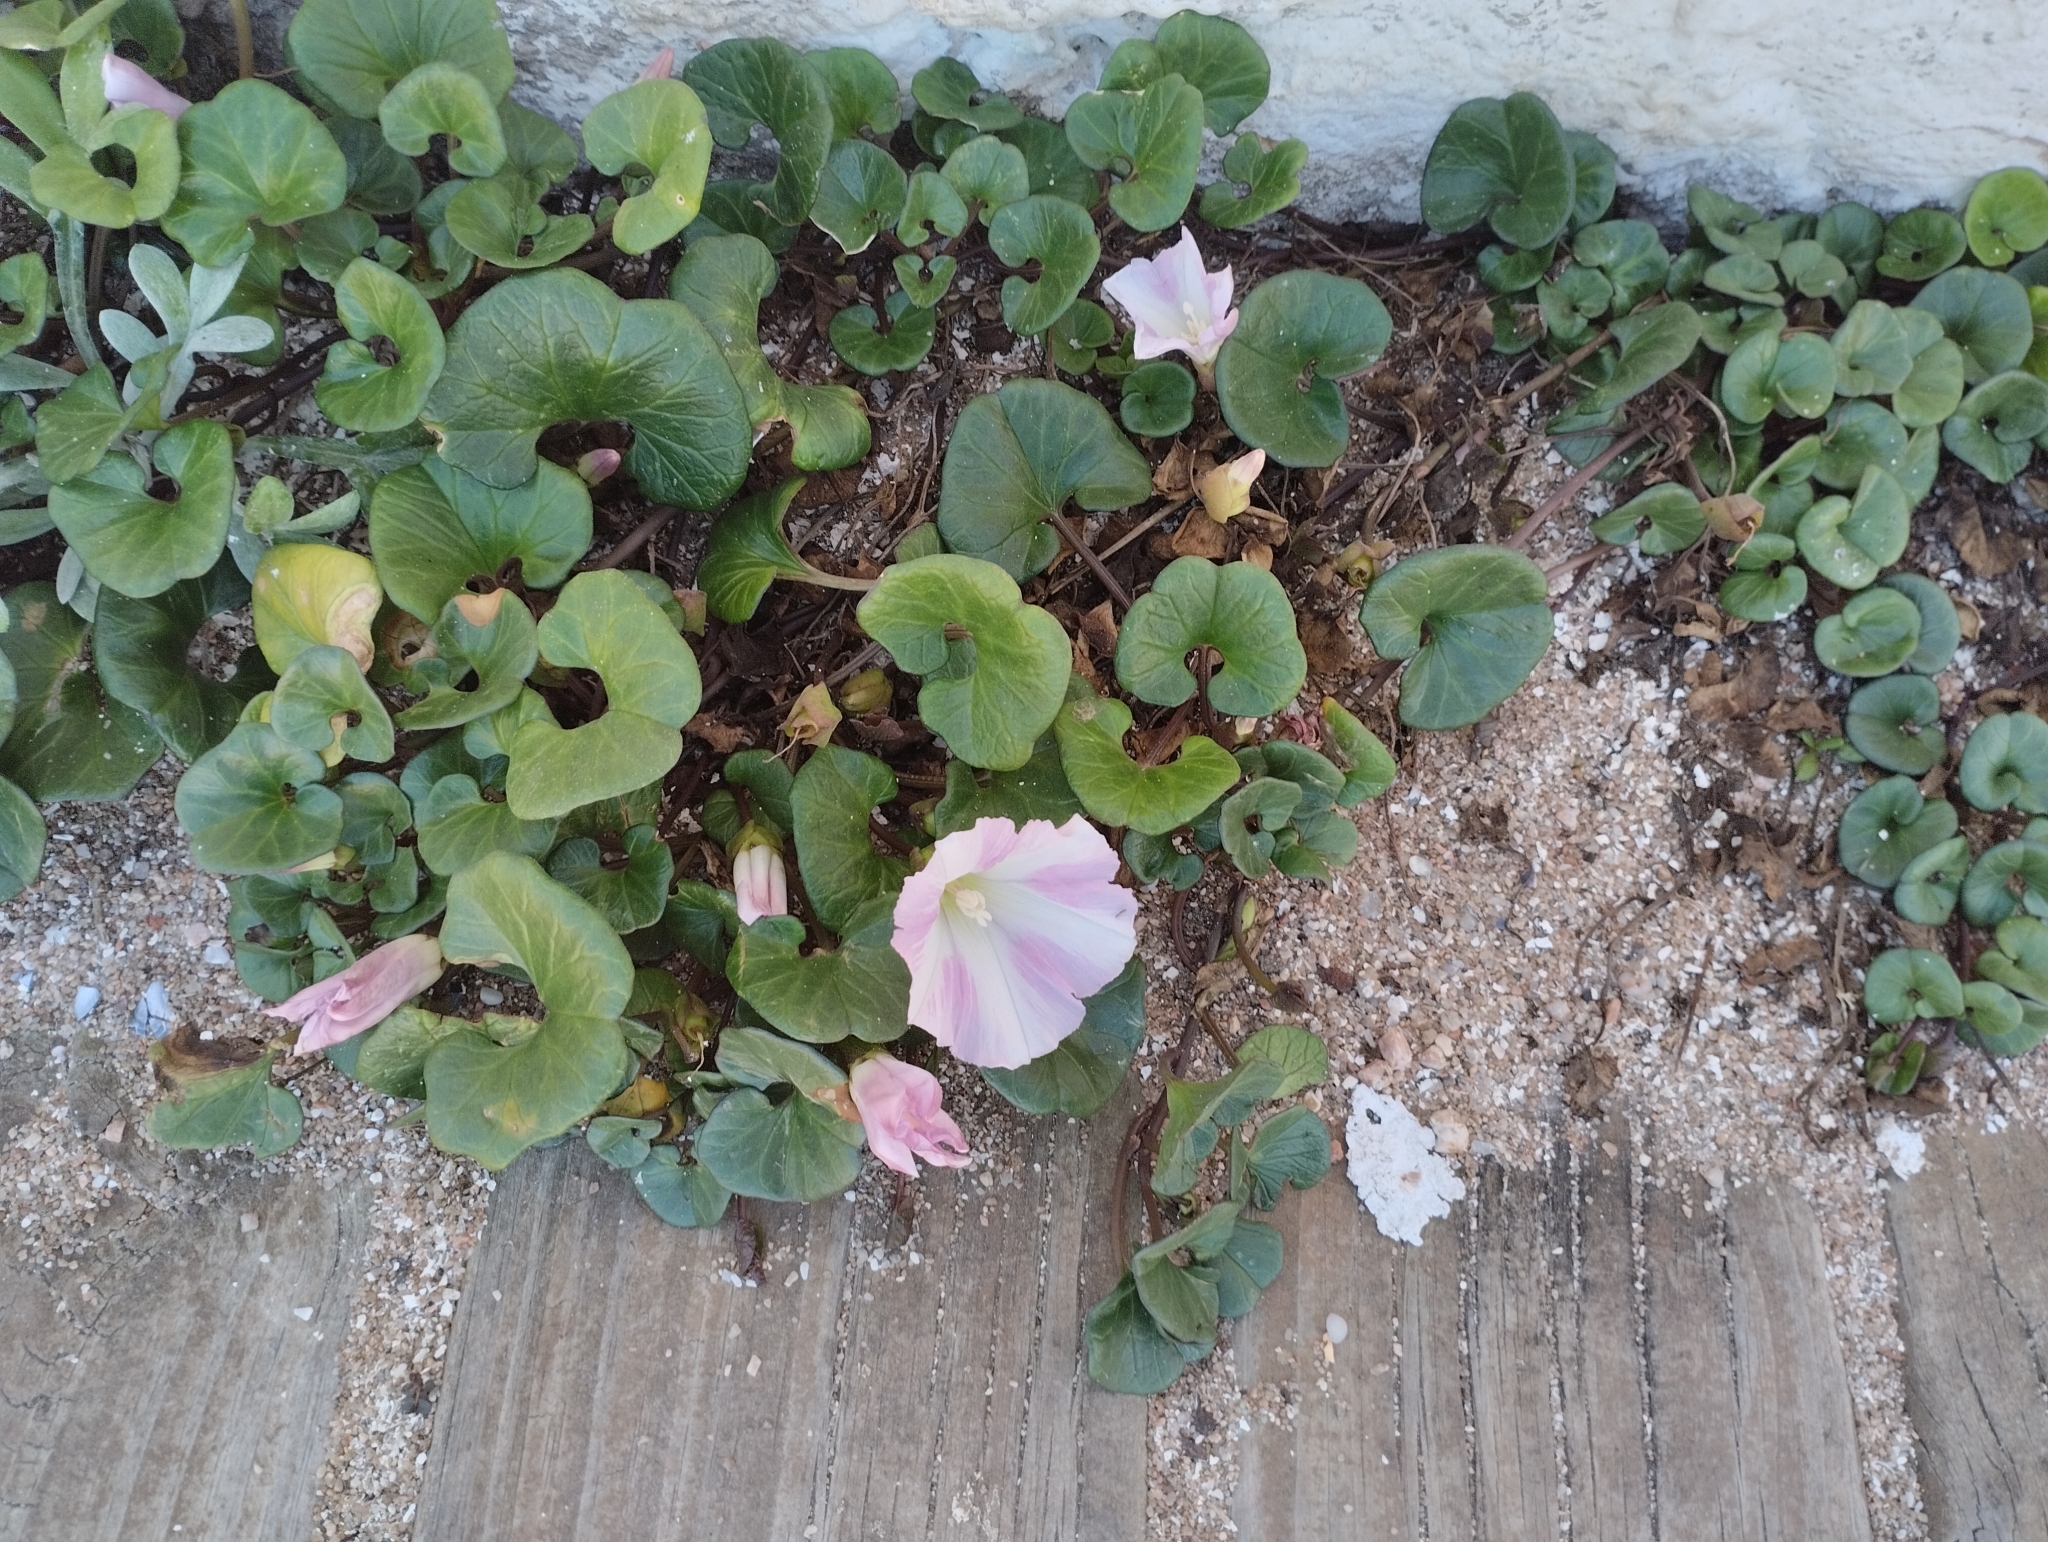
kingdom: Plantae
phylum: Tracheophyta
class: Magnoliopsida
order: Solanales
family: Convolvulaceae
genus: Calystegia
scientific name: Calystegia soldanella
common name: Sea bindweed
